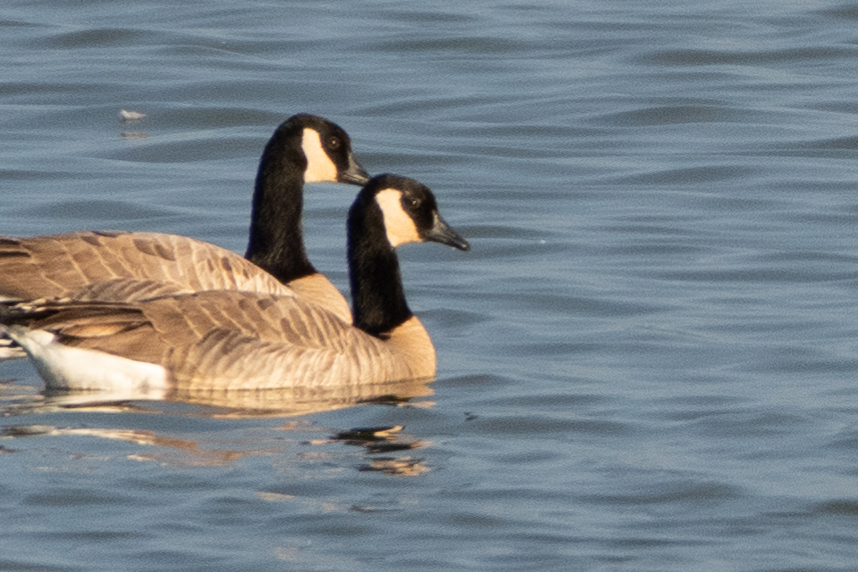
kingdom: Animalia
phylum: Chordata
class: Aves
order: Anseriformes
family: Anatidae
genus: Branta
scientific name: Branta canadensis
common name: Canada goose
